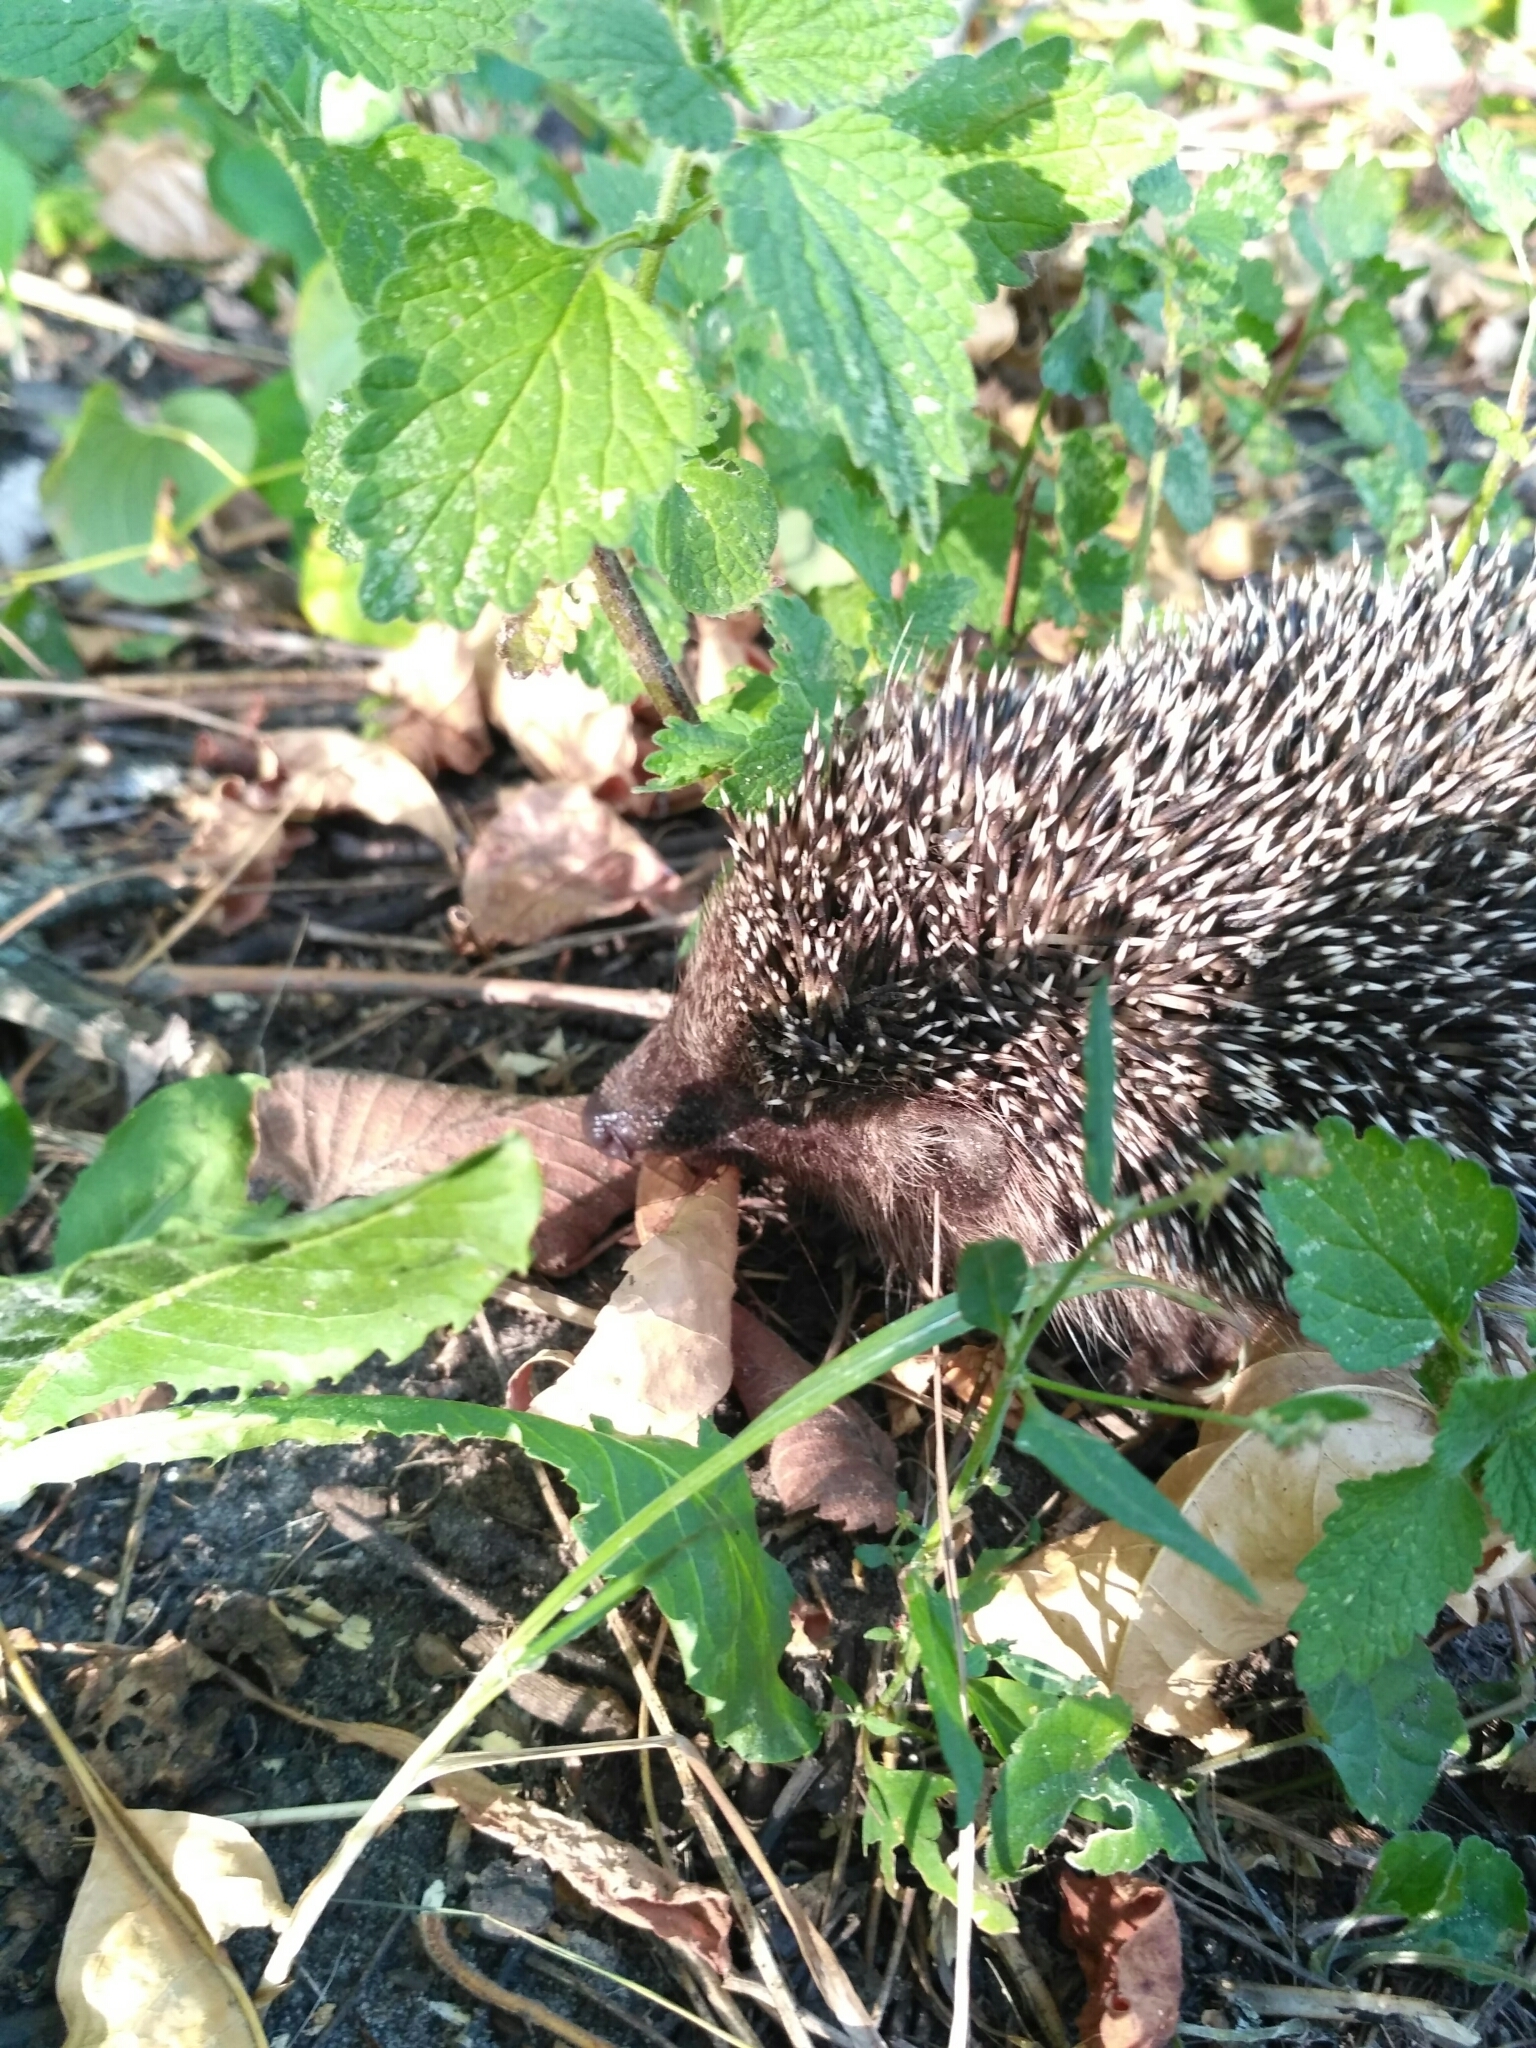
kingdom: Animalia
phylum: Chordata
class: Mammalia
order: Erinaceomorpha
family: Erinaceidae
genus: Erinaceus
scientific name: Erinaceus roumanicus
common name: Northern white-breasted hedgehog
